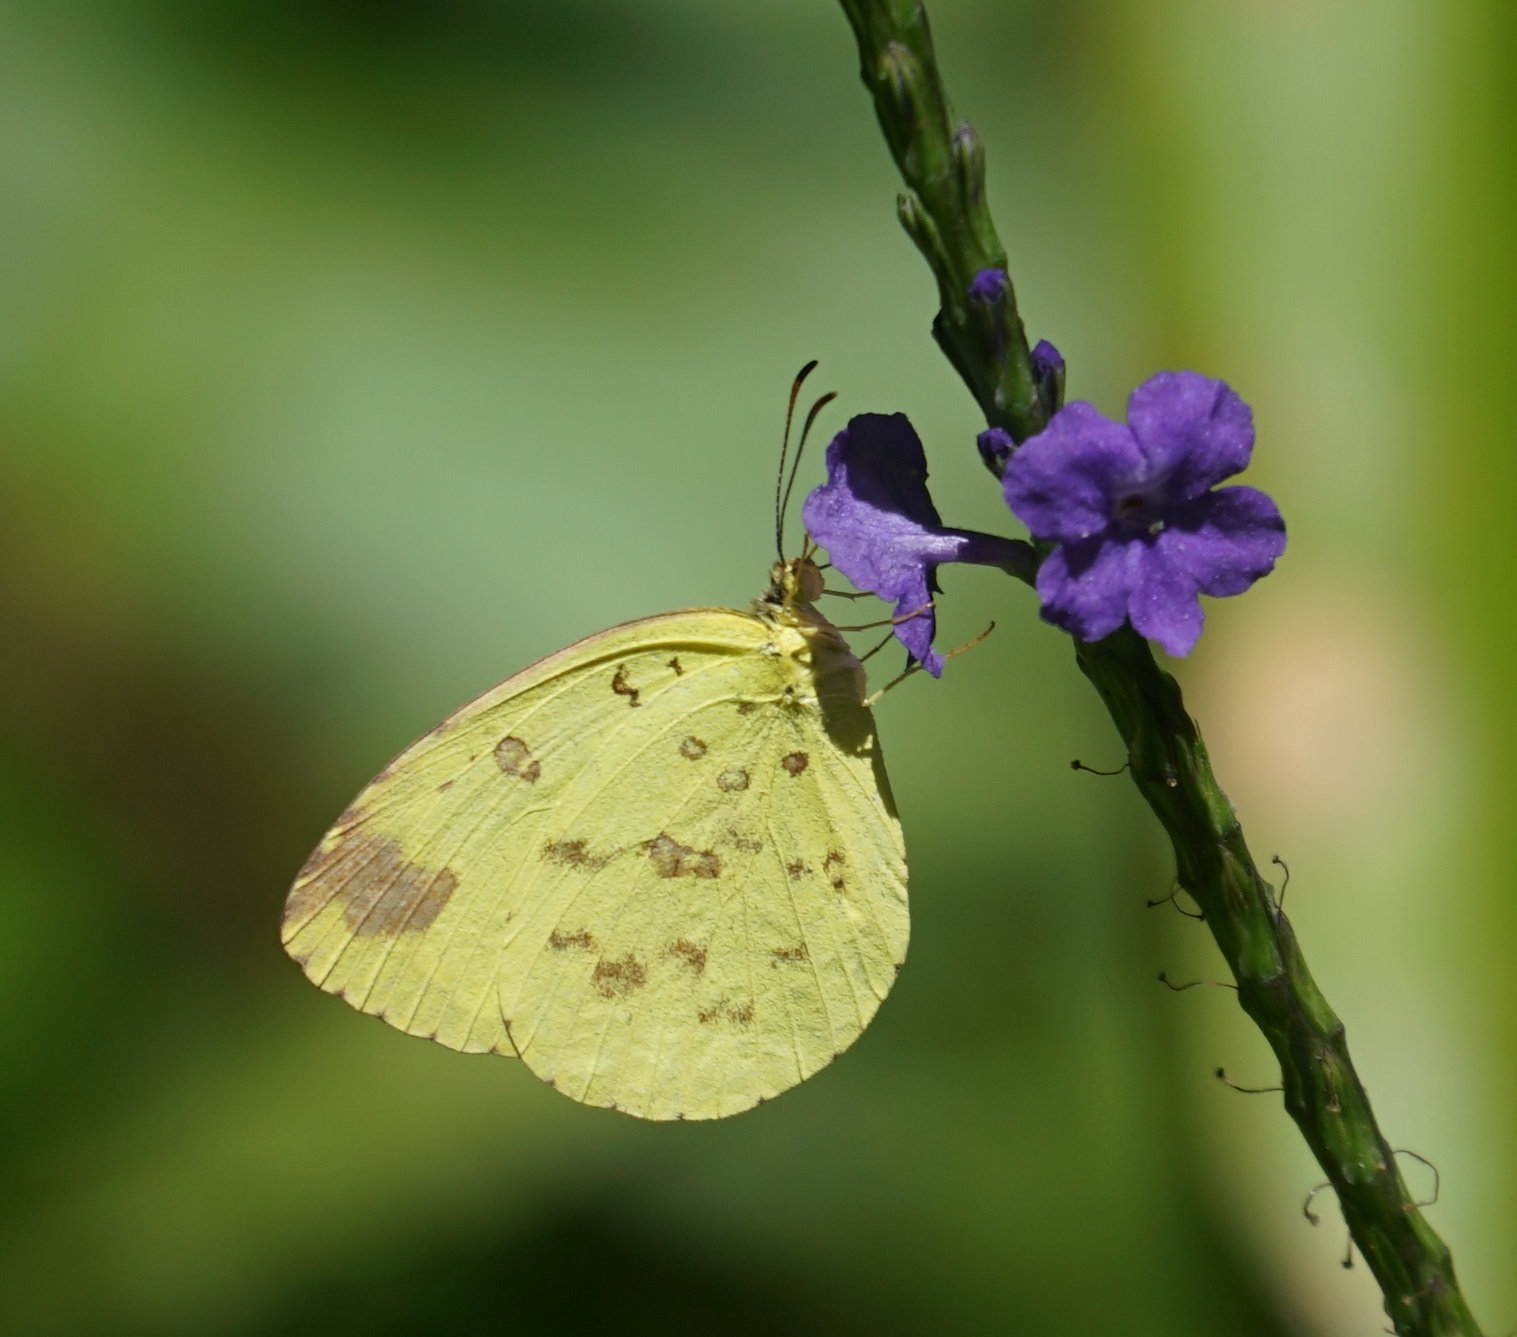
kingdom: Animalia
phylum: Arthropoda
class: Insecta
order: Lepidoptera
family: Pieridae
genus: Eurema
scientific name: Eurema
